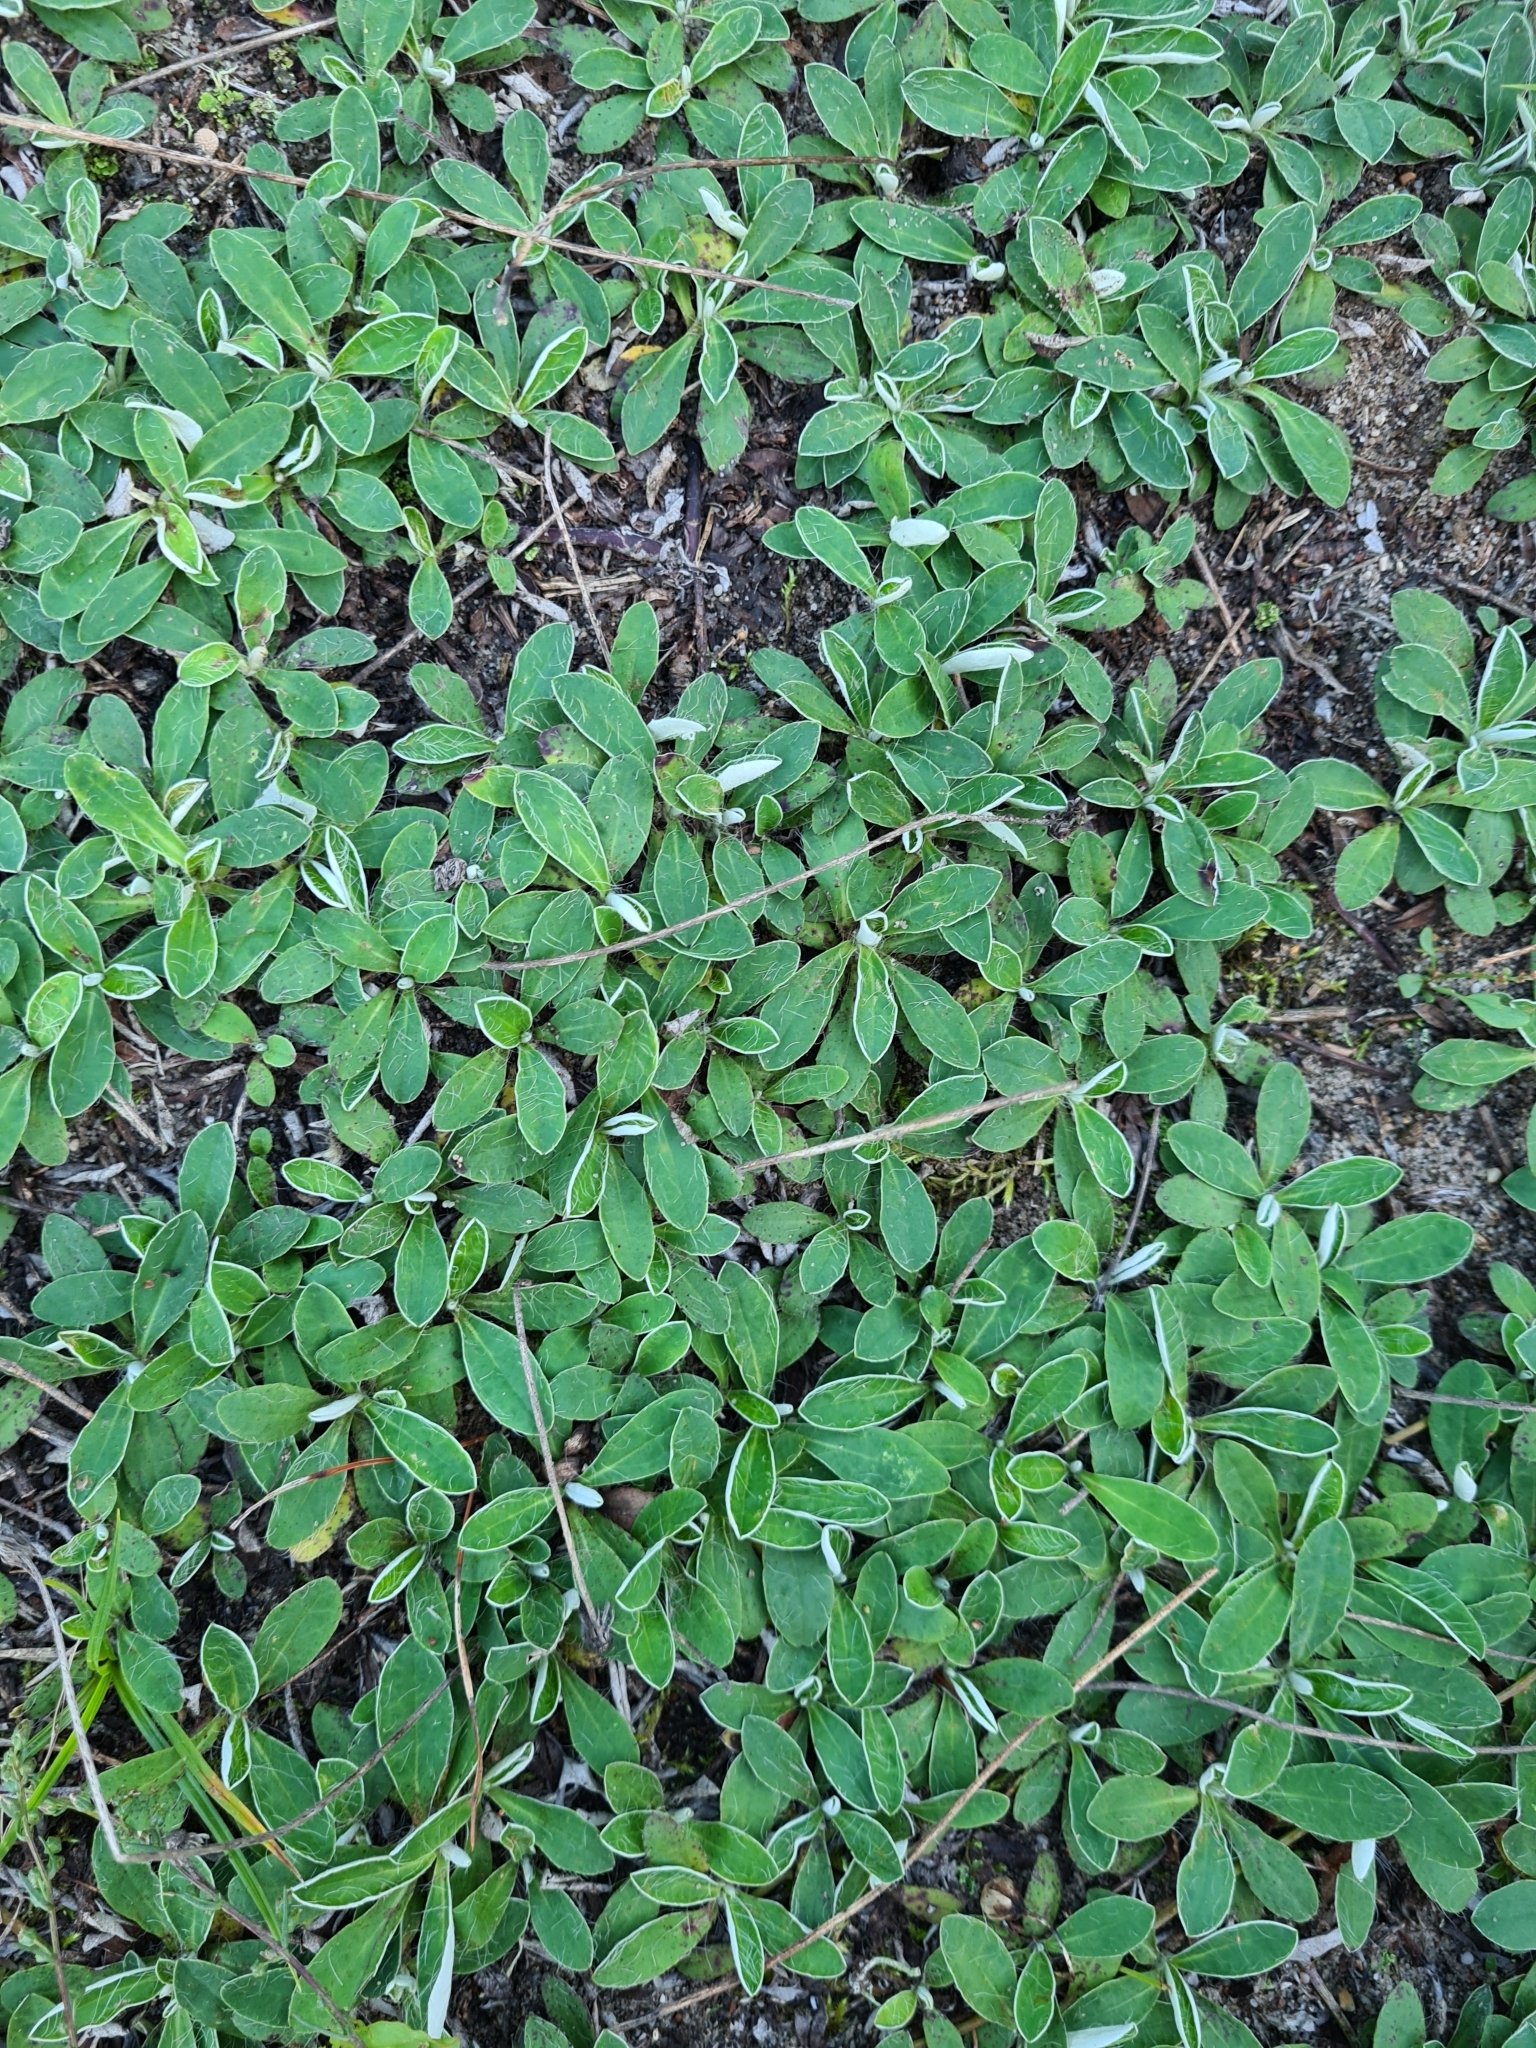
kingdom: Plantae
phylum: Tracheophyta
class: Magnoliopsida
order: Asterales
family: Asteraceae
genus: Pilosella
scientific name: Pilosella officinarum
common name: Mouse-ear hawkweed
